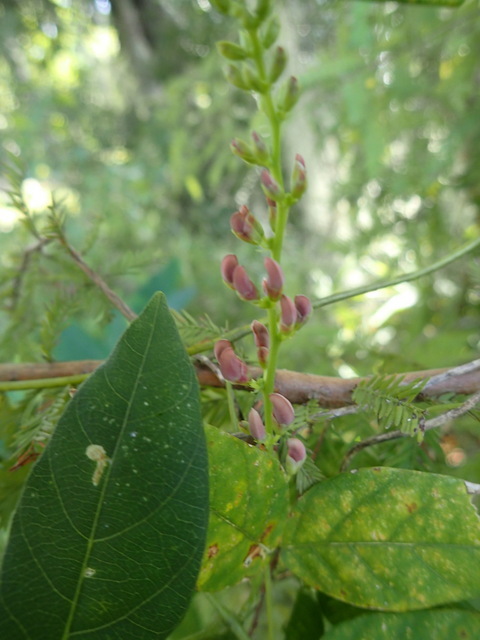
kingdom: Plantae
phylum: Tracheophyta
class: Magnoliopsida
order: Fabales
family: Fabaceae
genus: Apios
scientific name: Apios americana
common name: American potato-bean
